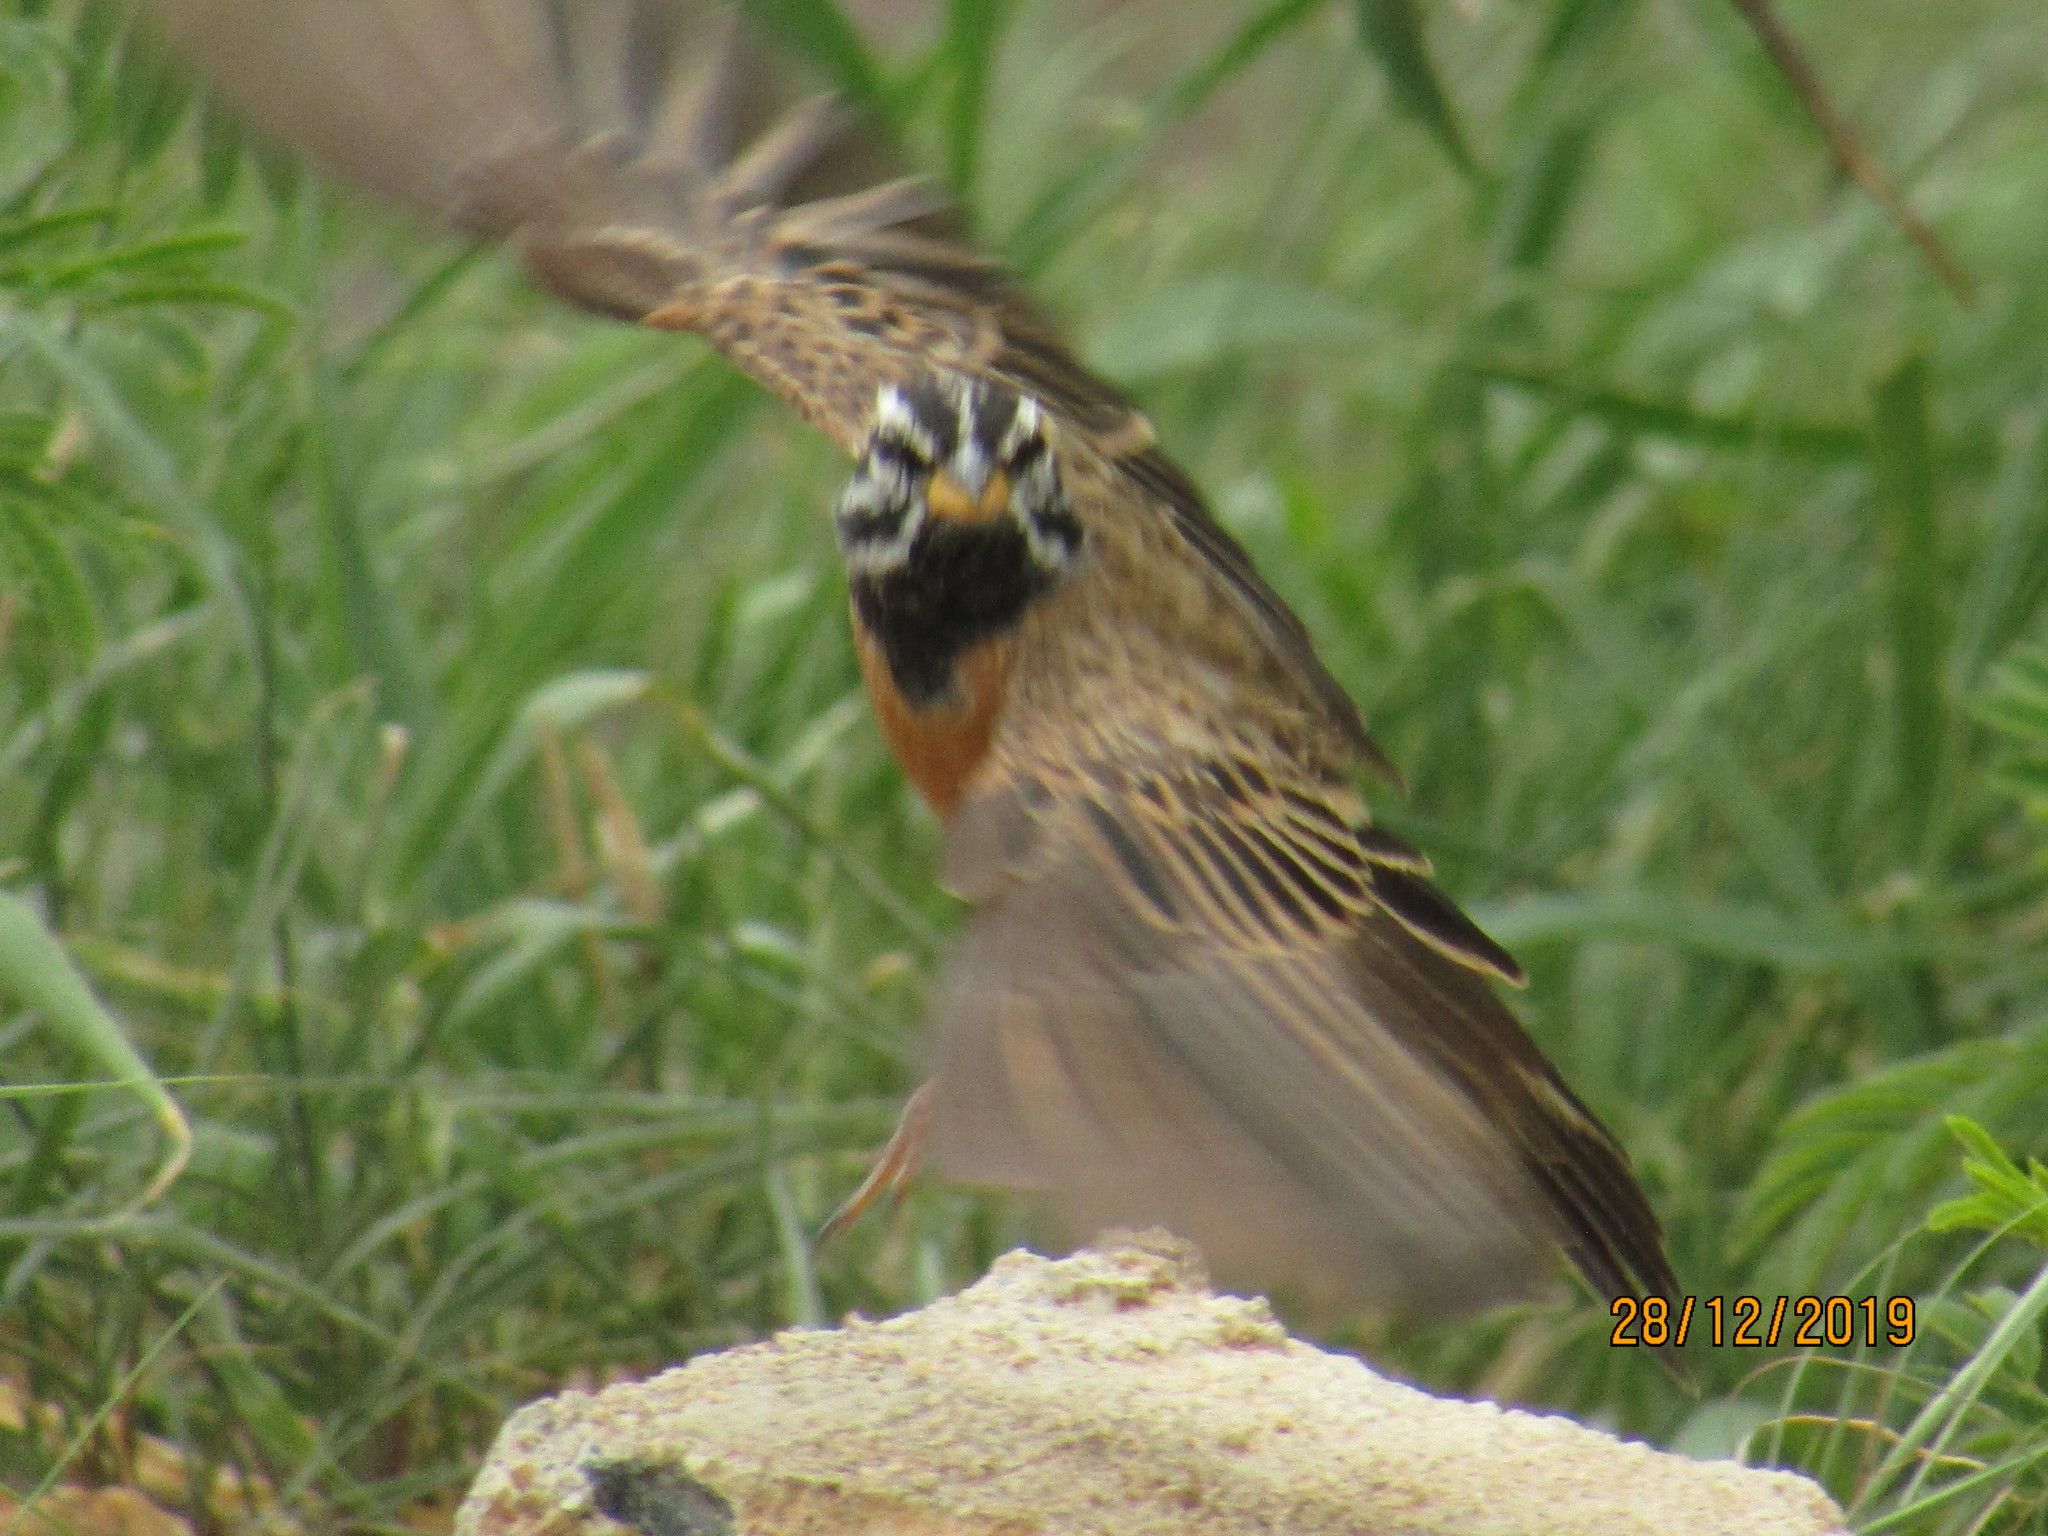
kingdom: Animalia
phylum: Chordata
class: Aves
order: Passeriformes
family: Emberizidae
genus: Emberiza
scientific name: Emberiza tahapisi
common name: Cinnamon-breasted bunting
